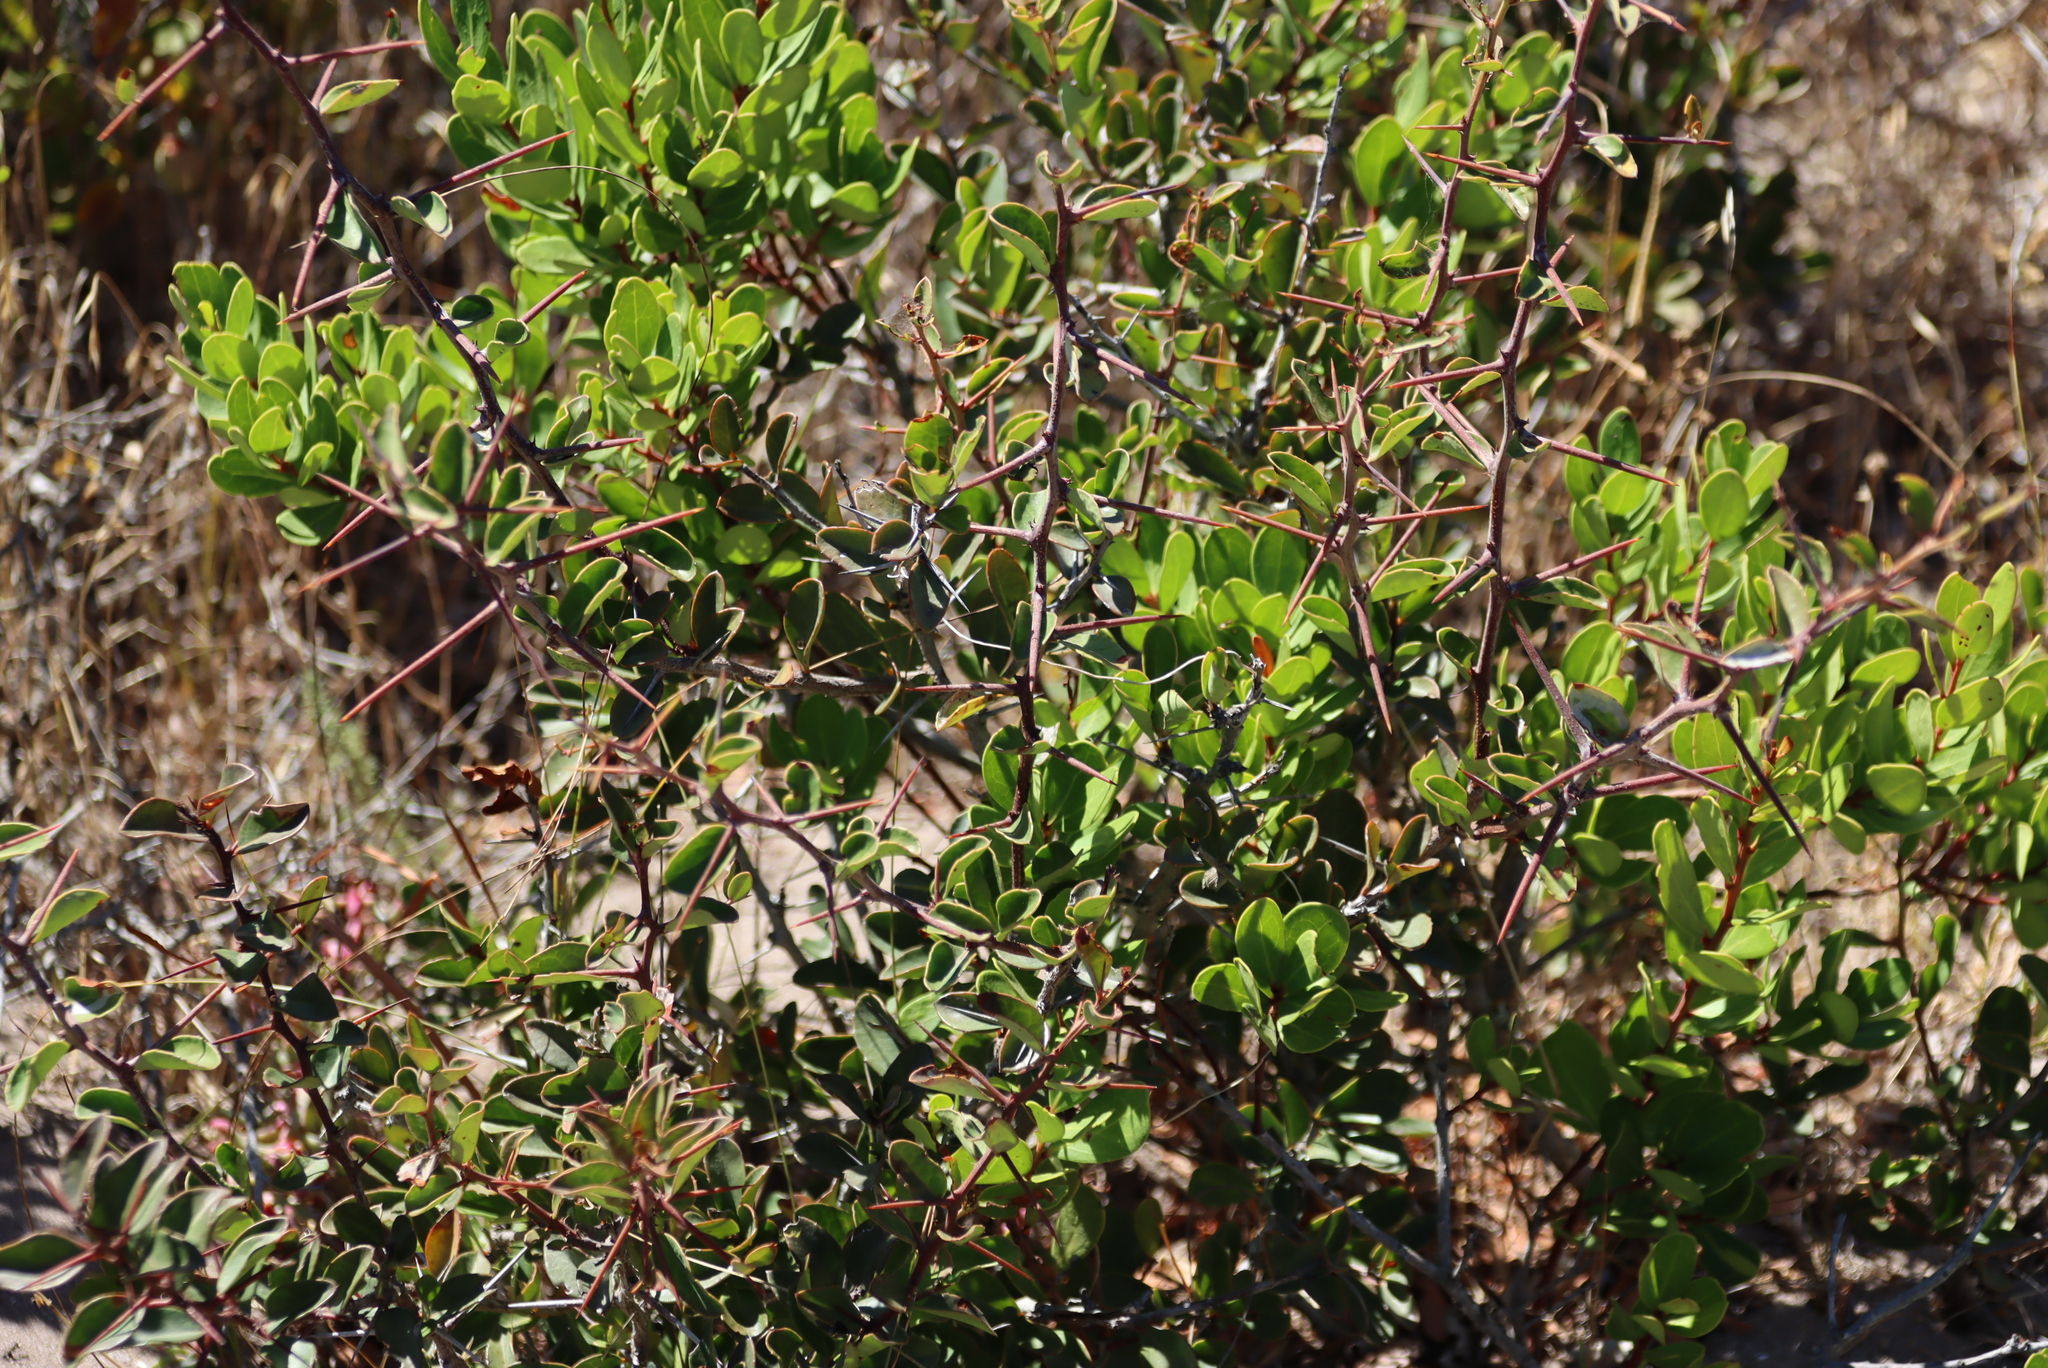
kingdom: Plantae
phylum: Tracheophyta
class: Magnoliopsida
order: Celastrales
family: Celastraceae
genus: Putterlickia
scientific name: Putterlickia pyracantha
